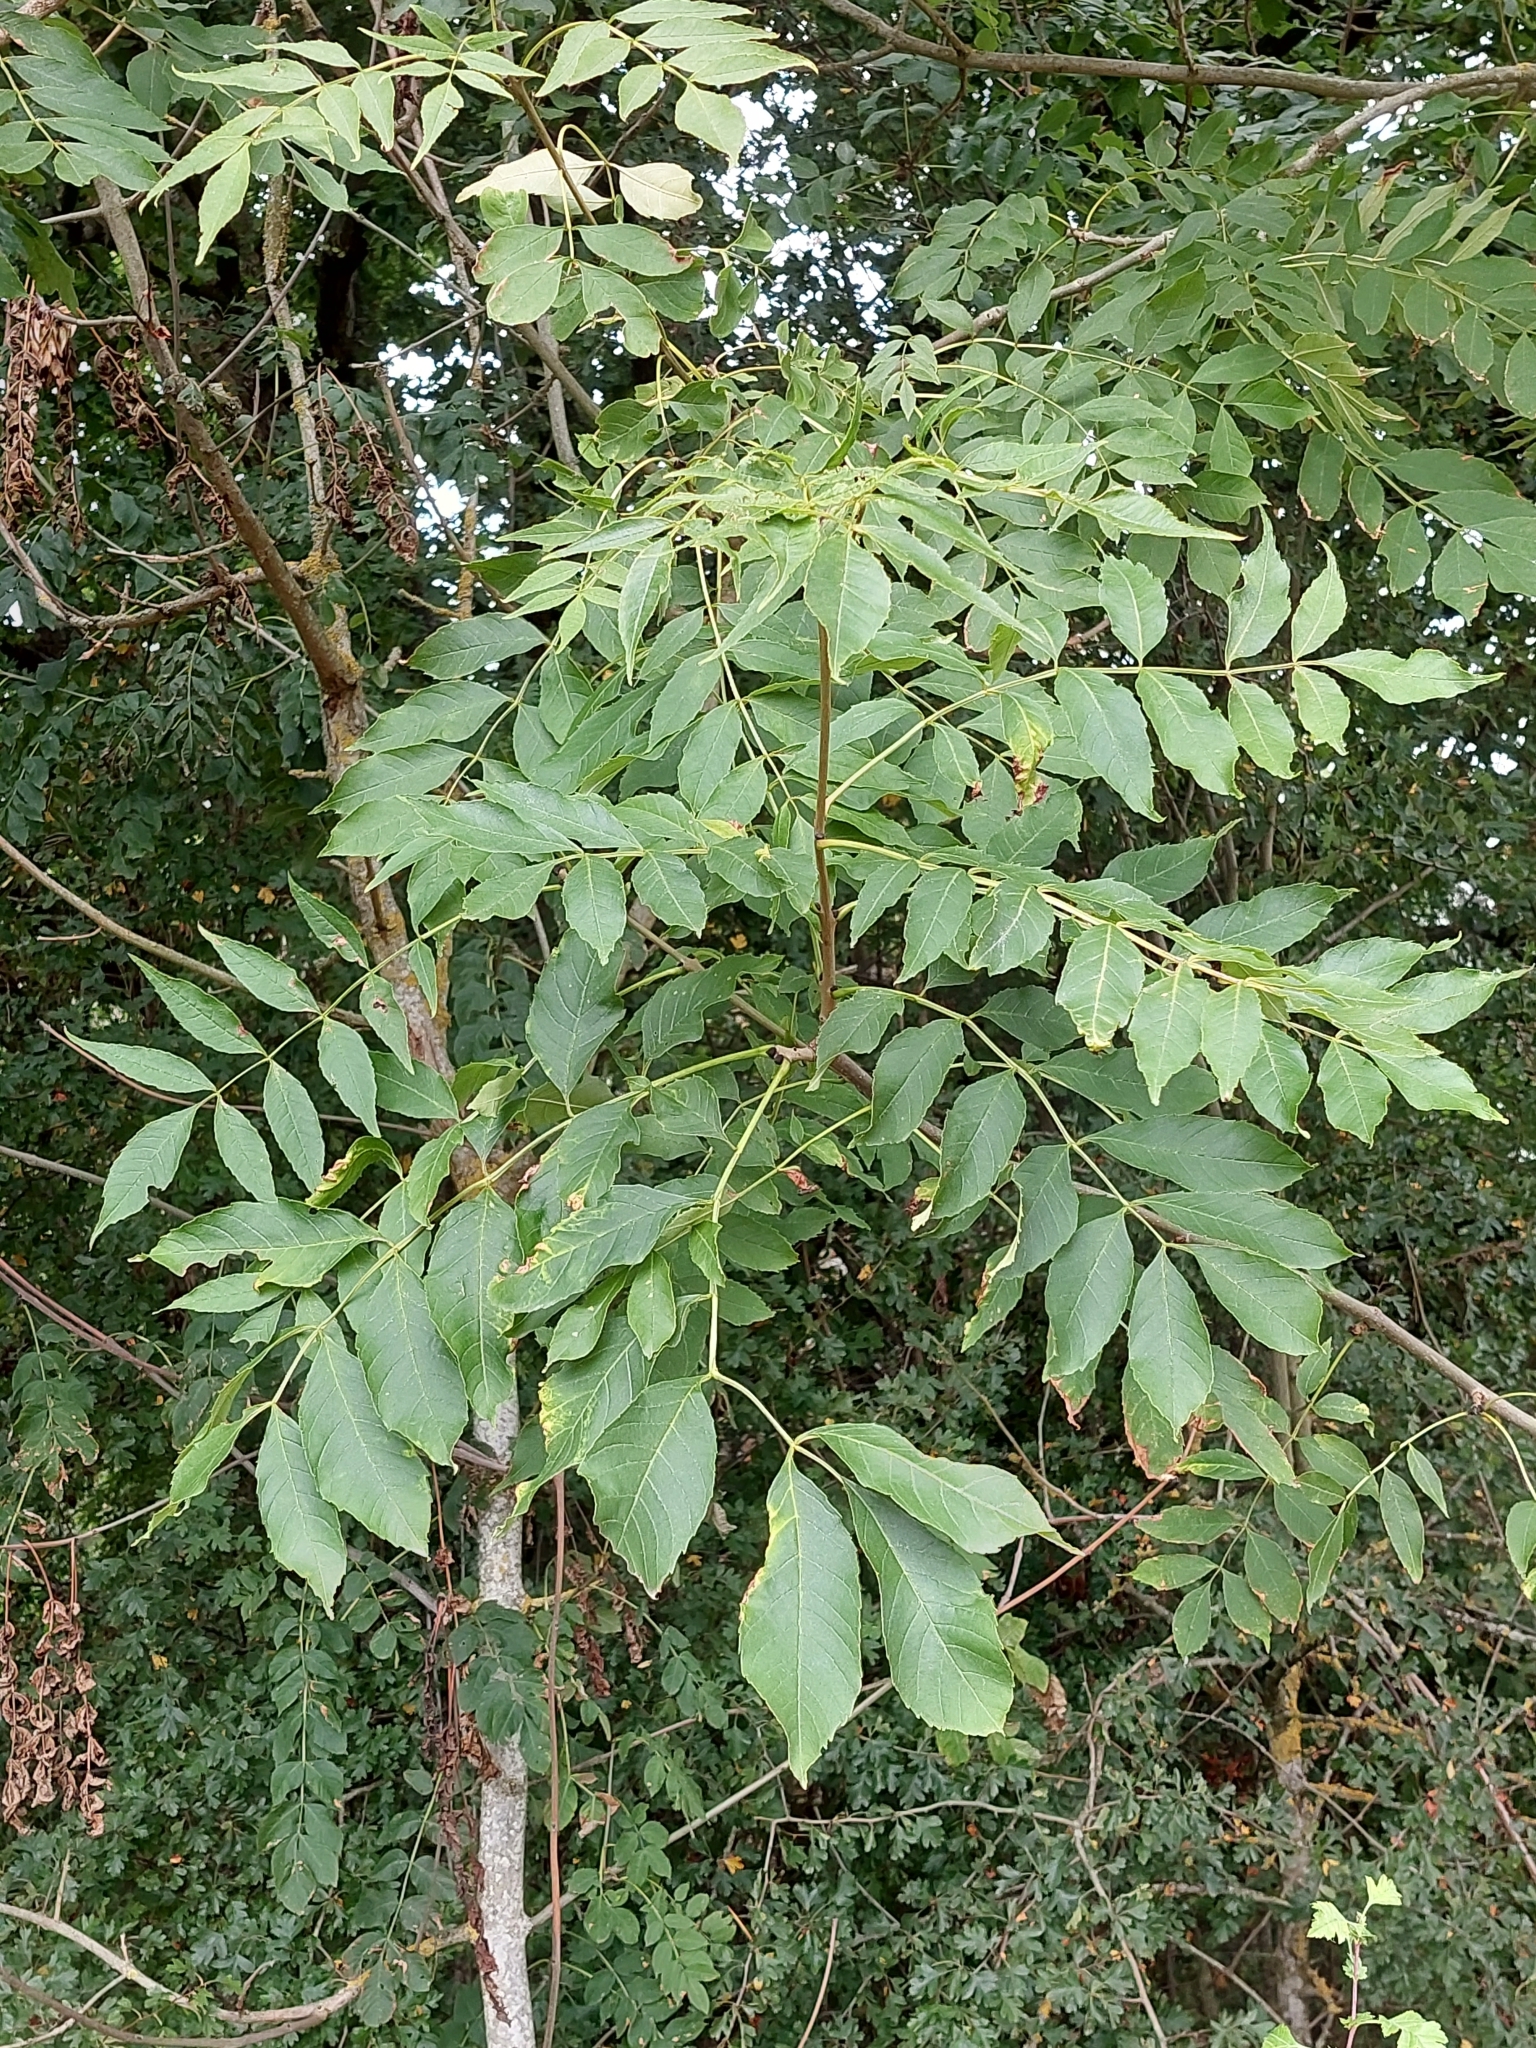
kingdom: Plantae
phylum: Tracheophyta
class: Magnoliopsida
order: Lamiales
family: Oleaceae
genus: Fraxinus
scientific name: Fraxinus excelsior
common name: European ash
